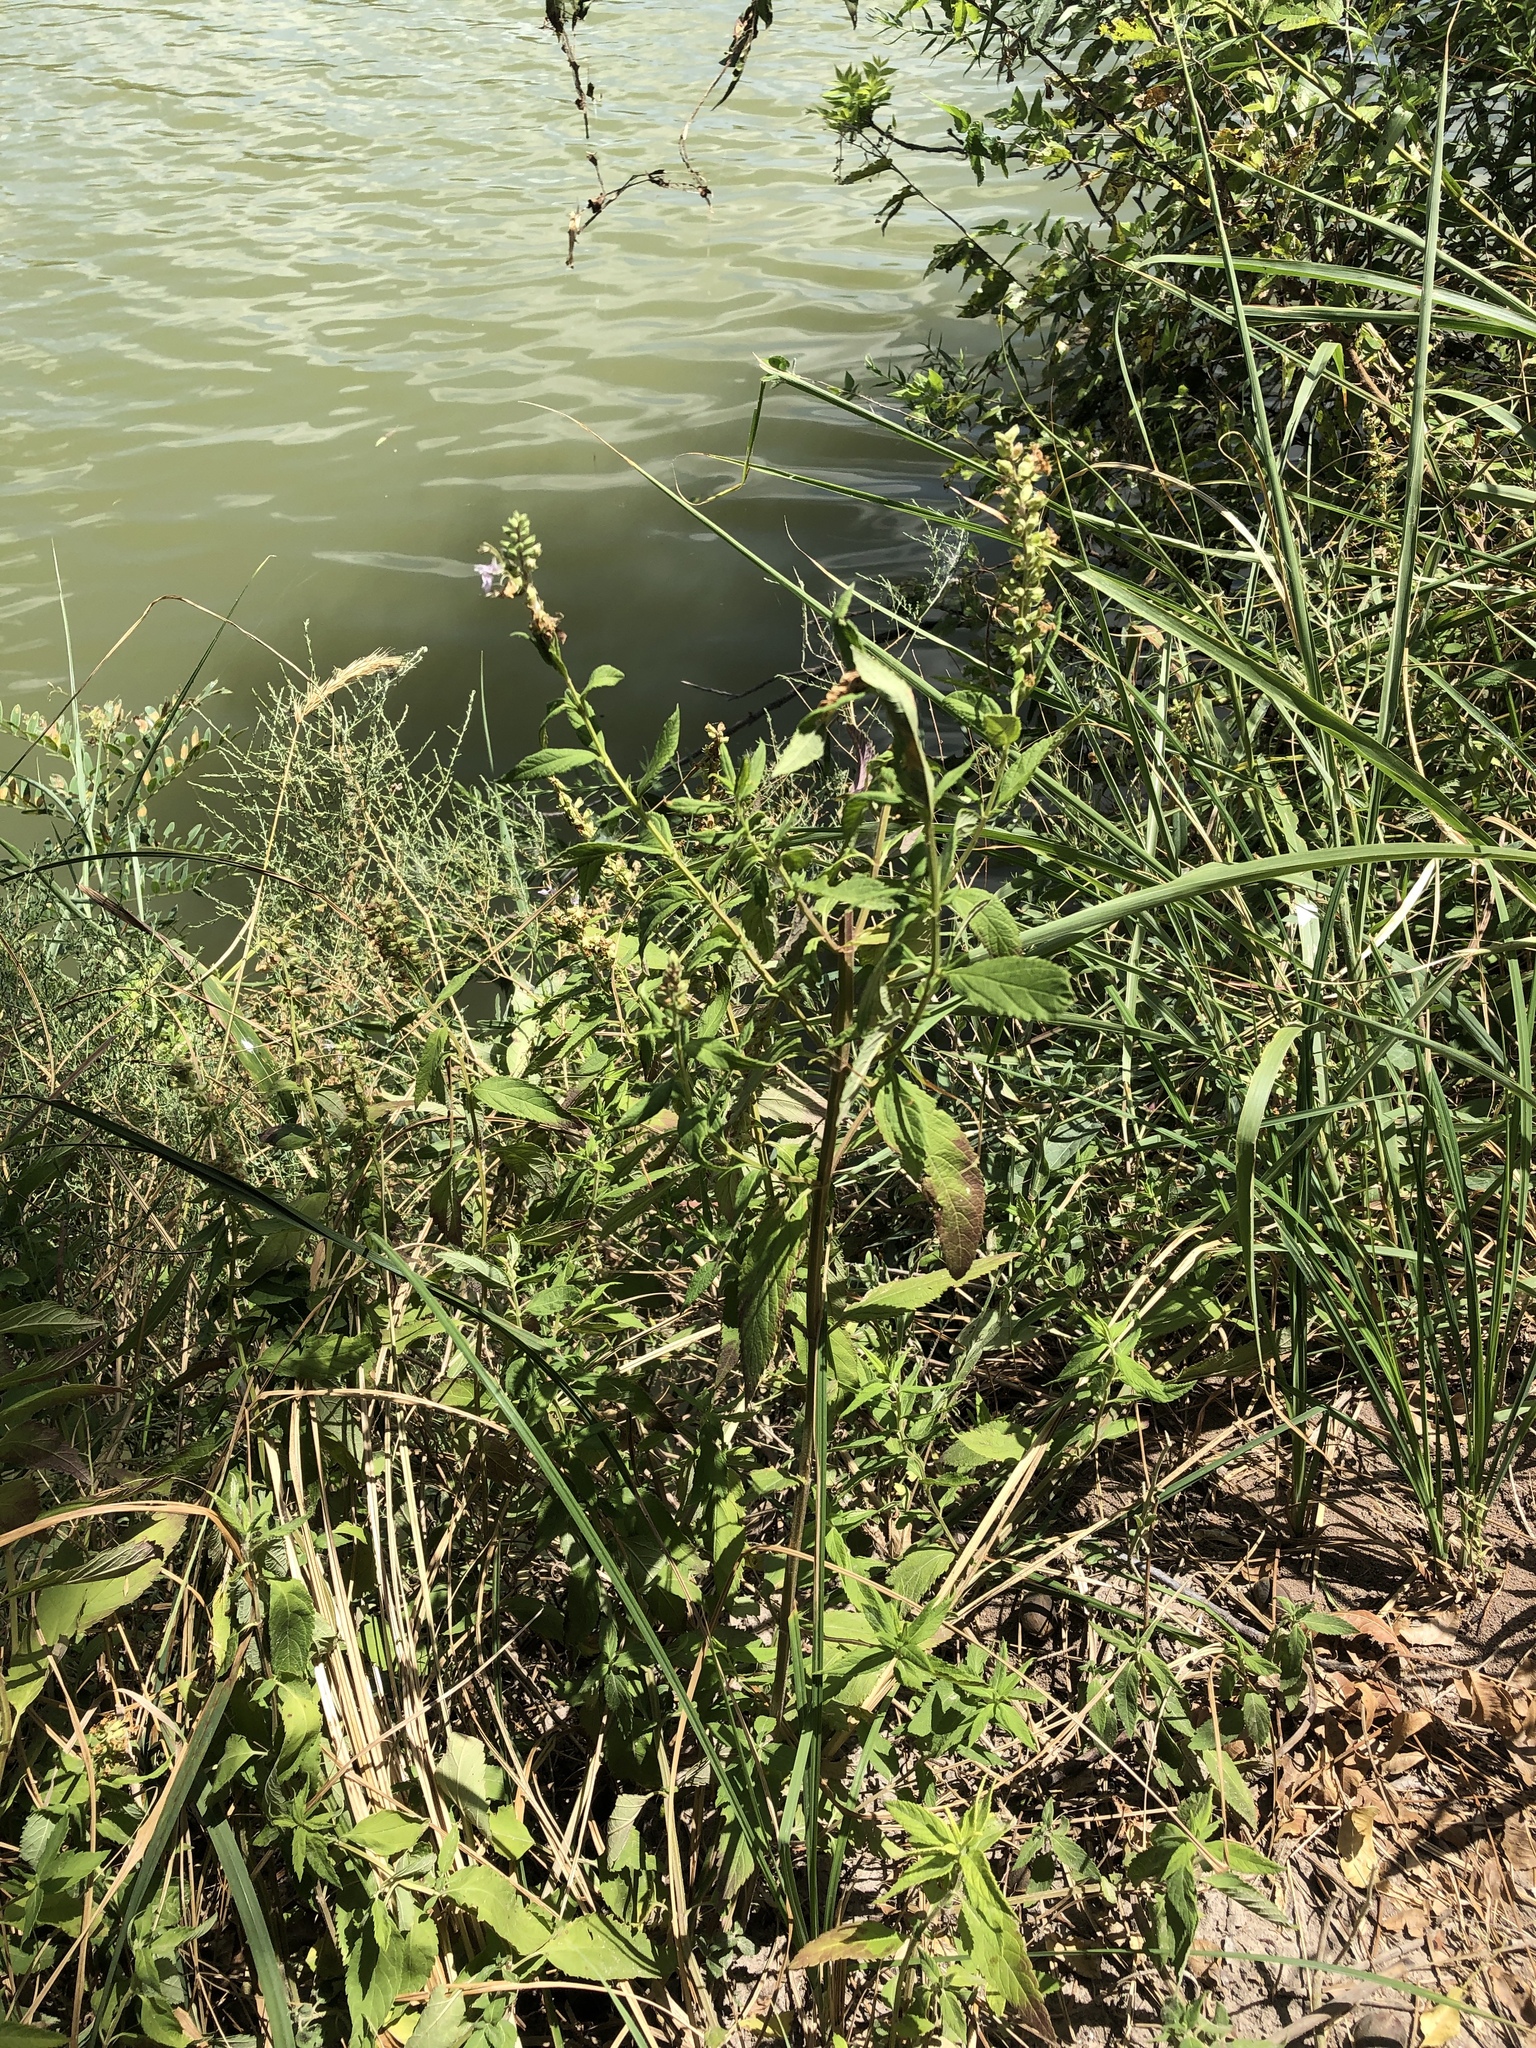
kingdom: Plantae
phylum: Tracheophyta
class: Magnoliopsida
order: Lamiales
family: Lamiaceae
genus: Teucrium
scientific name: Teucrium canadense
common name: American germander
